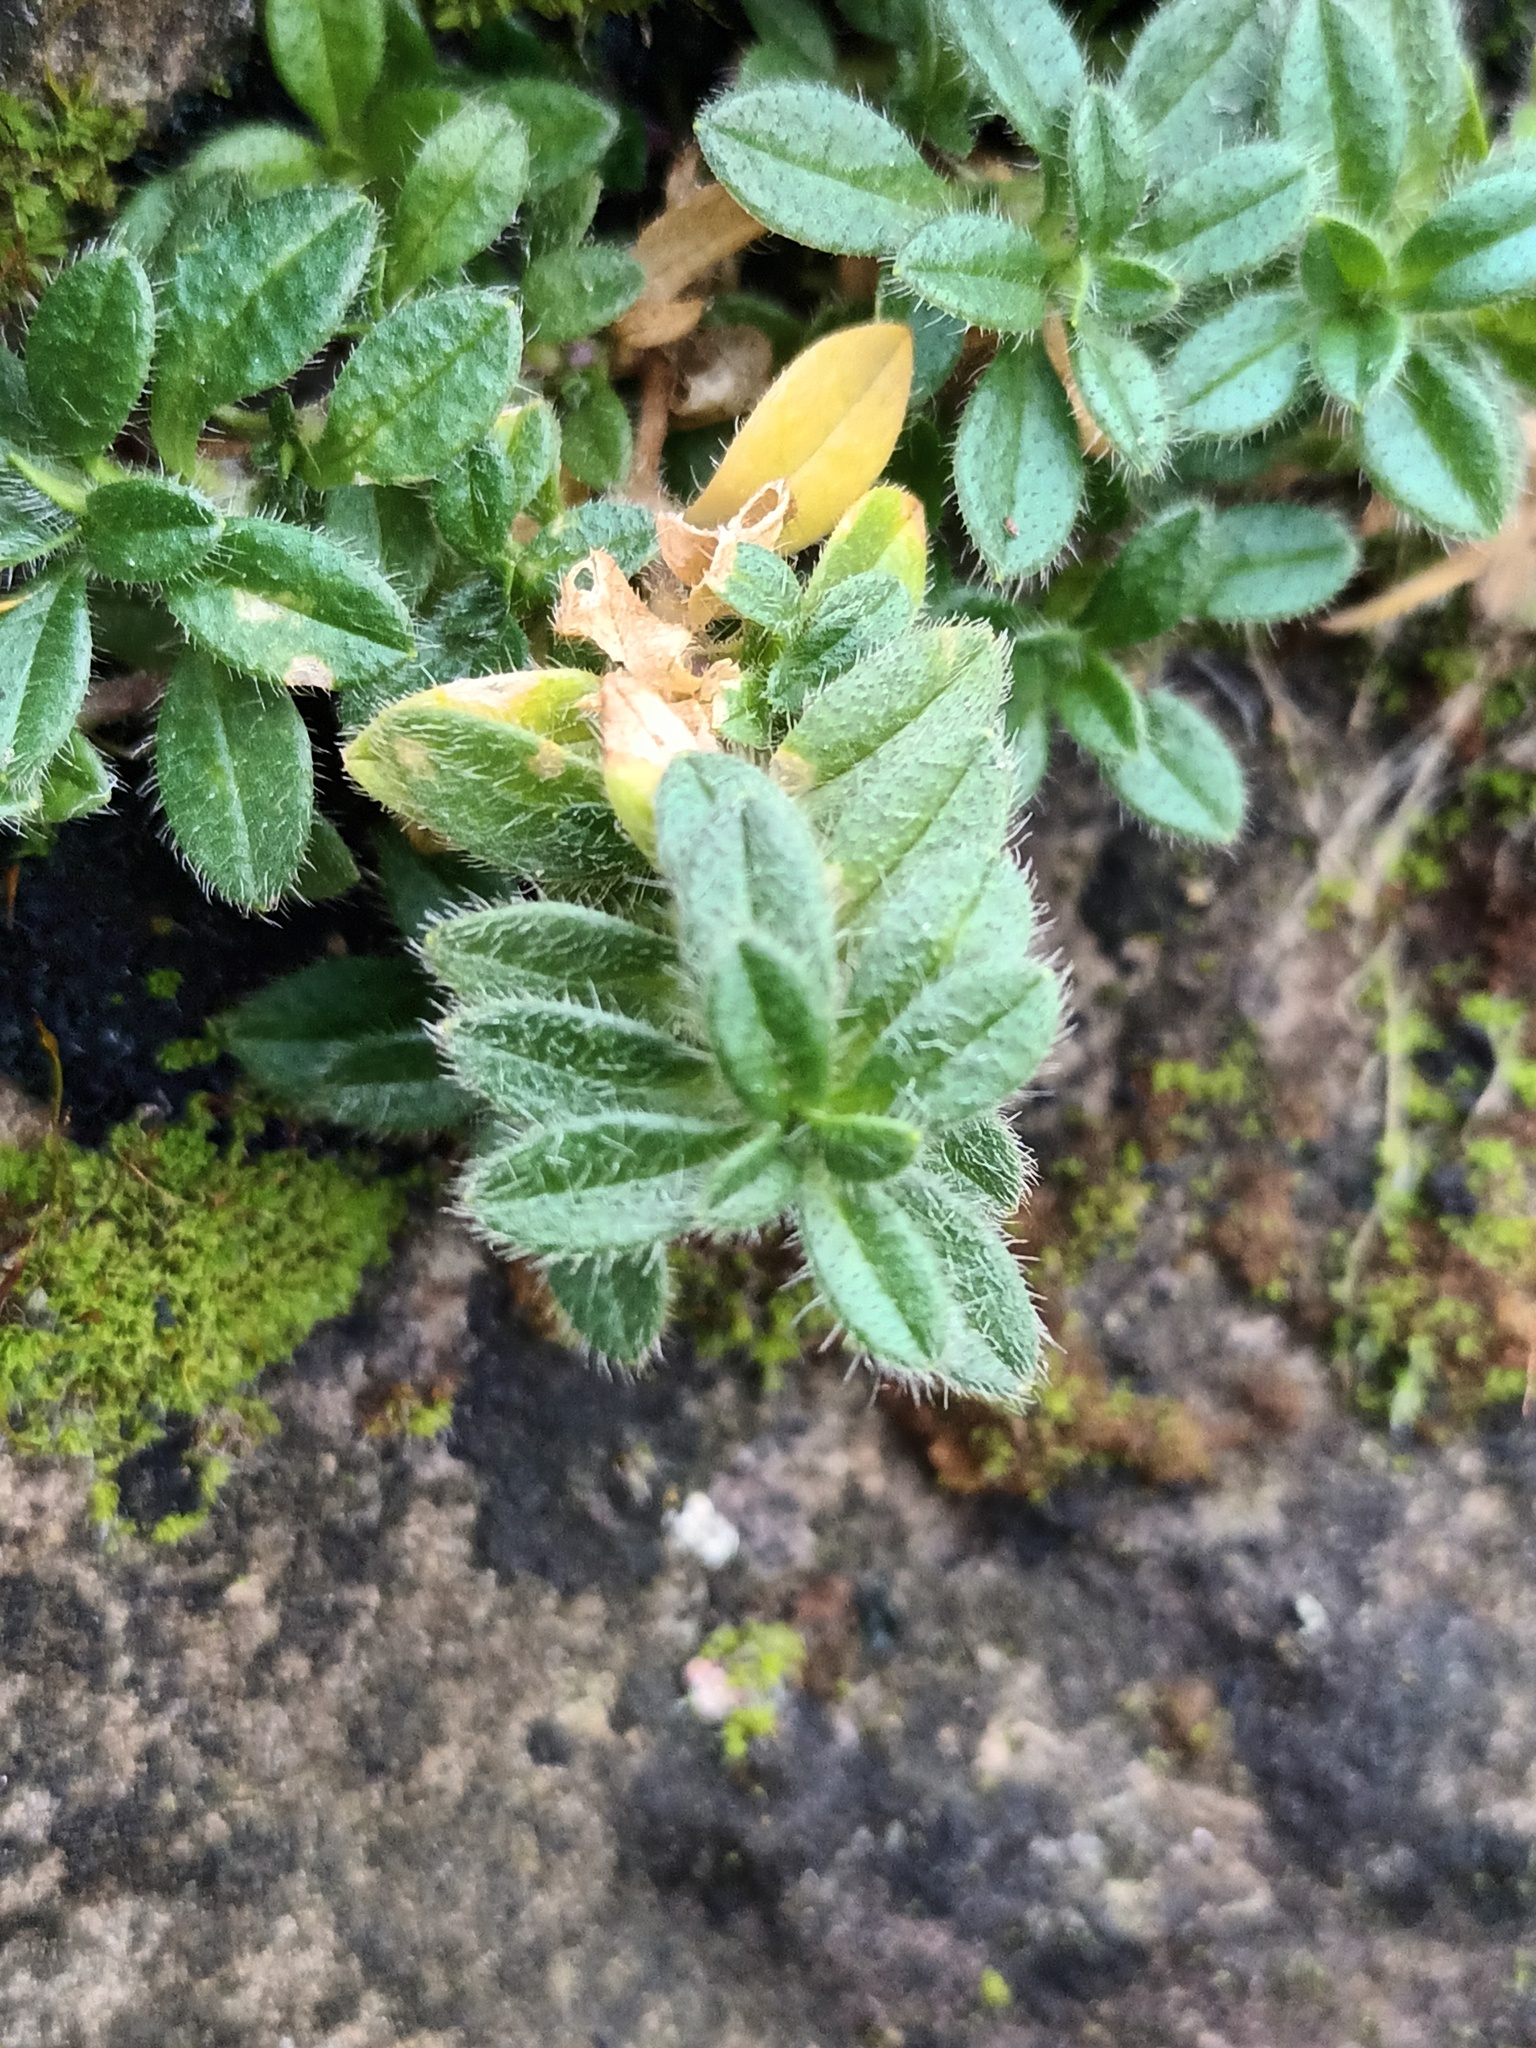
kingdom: Plantae
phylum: Tracheophyta
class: Magnoliopsida
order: Caryophyllales
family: Caryophyllaceae
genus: Cerastium
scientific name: Cerastium fontanum
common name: Common mouse-ear
